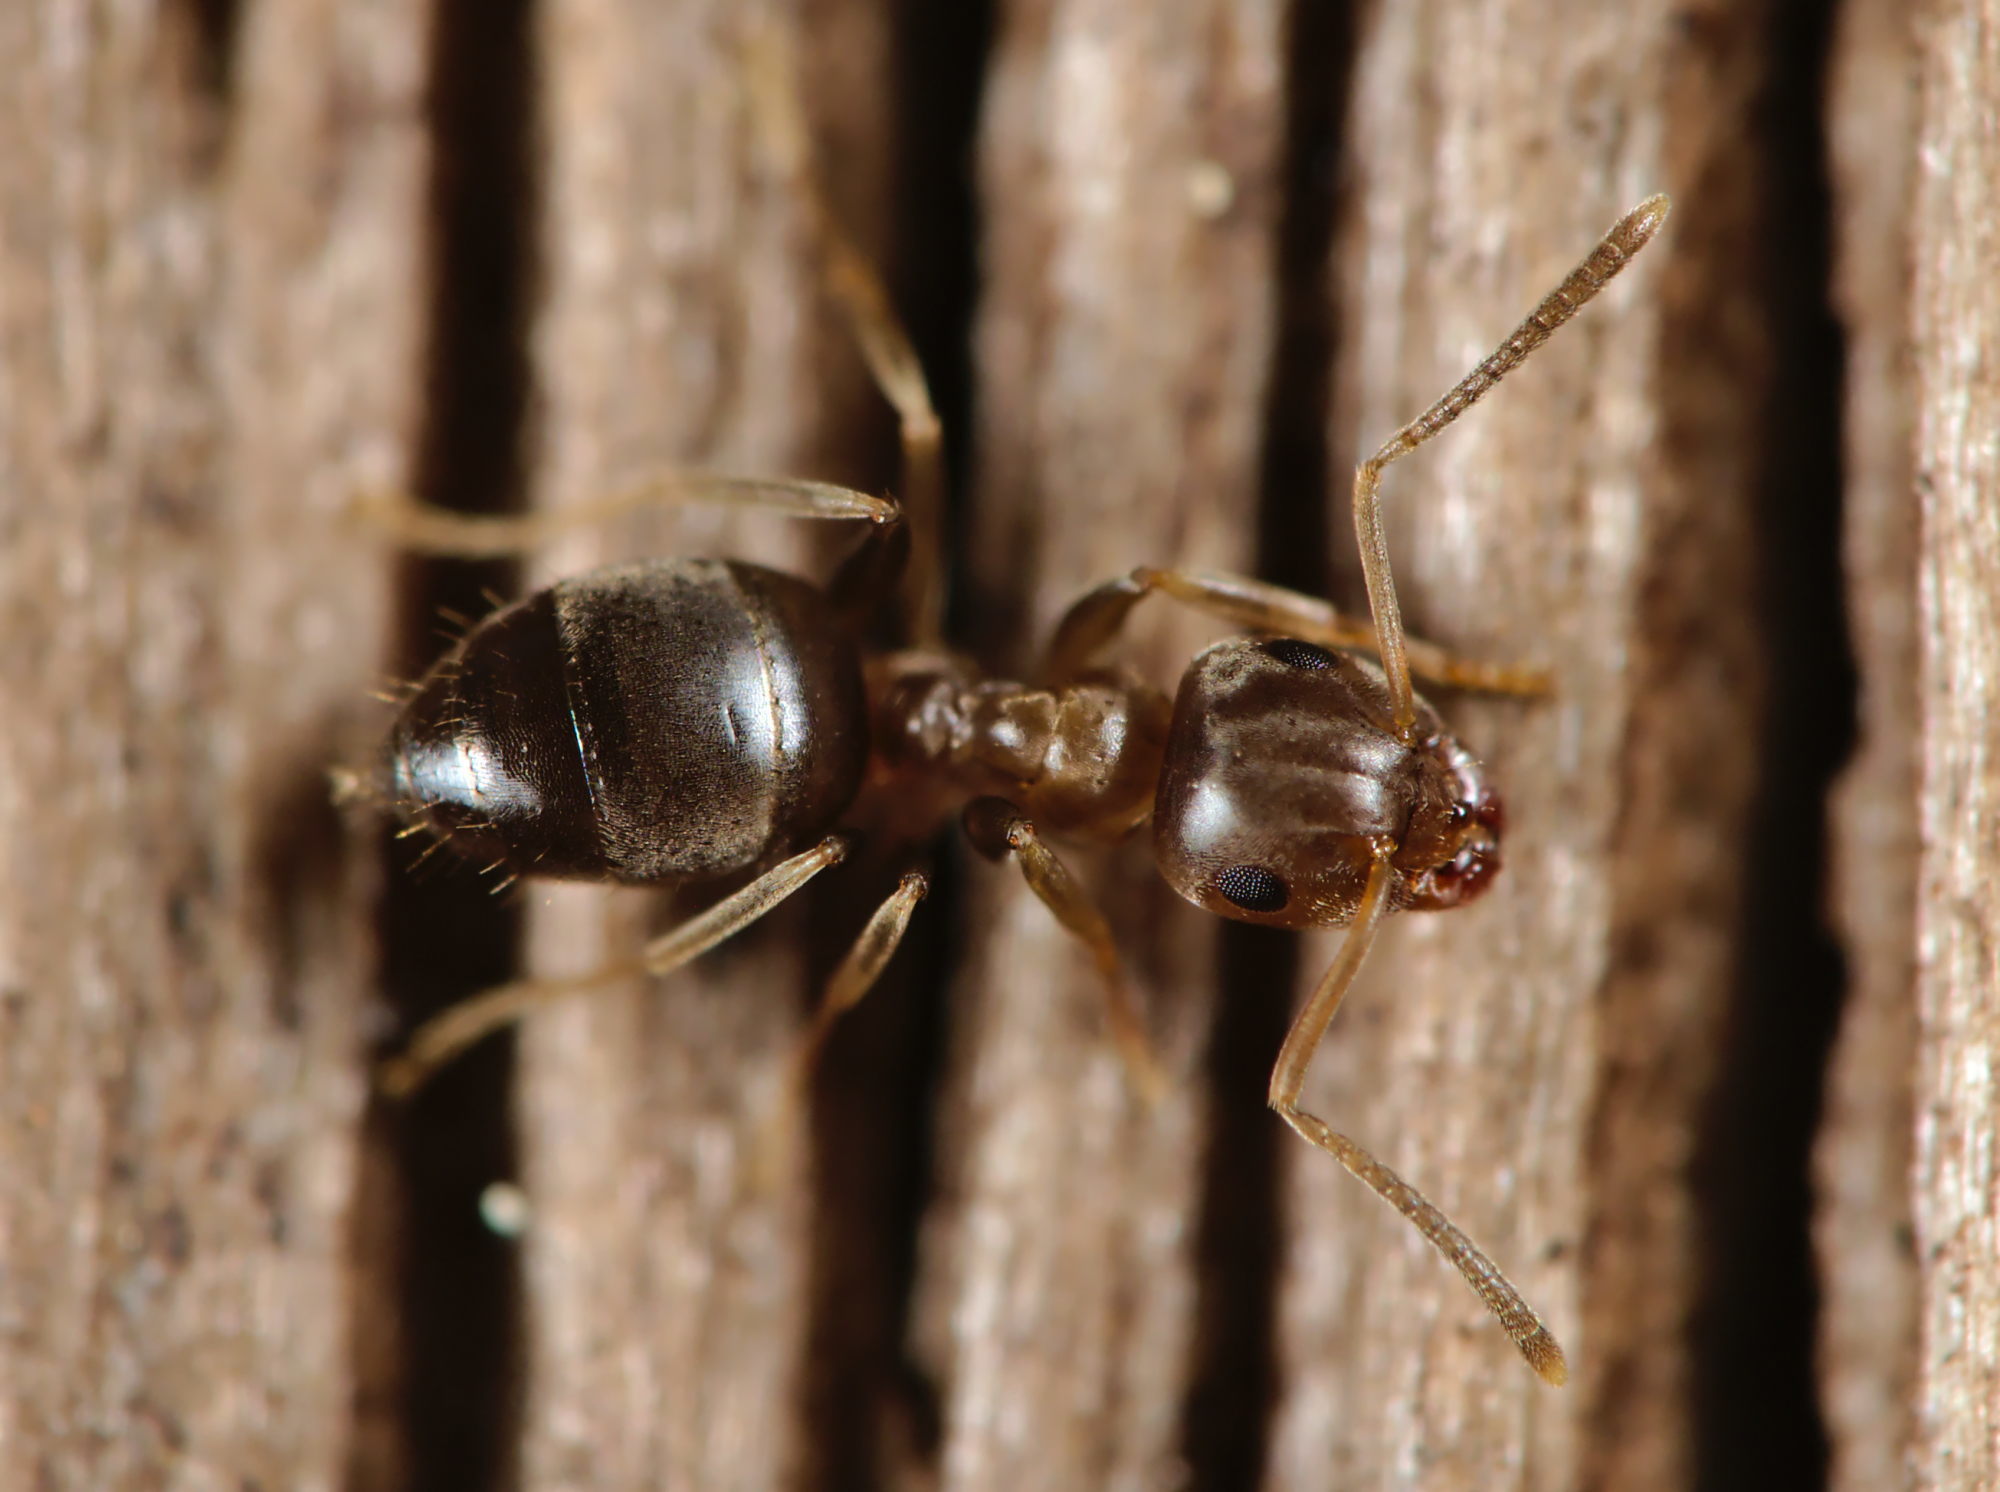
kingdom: Animalia
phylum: Arthropoda
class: Insecta
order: Hymenoptera
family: Formicidae
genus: Lasius
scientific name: Lasius brunneus
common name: Brown ant
